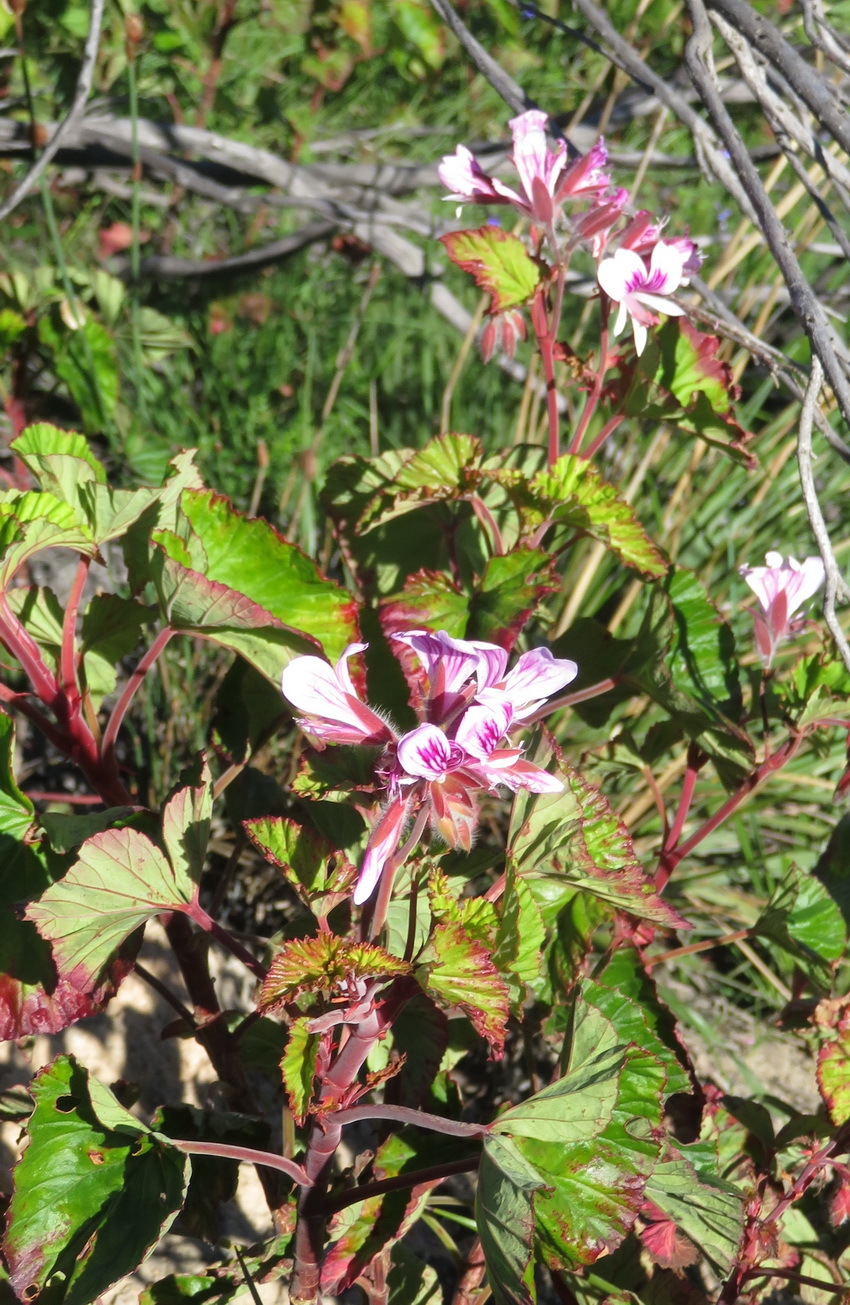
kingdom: Plantae
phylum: Tracheophyta
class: Magnoliopsida
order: Geraniales
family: Geraniaceae
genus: Pelargonium
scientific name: Pelargonium cordifolium
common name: Heart-leaf pelargonium
